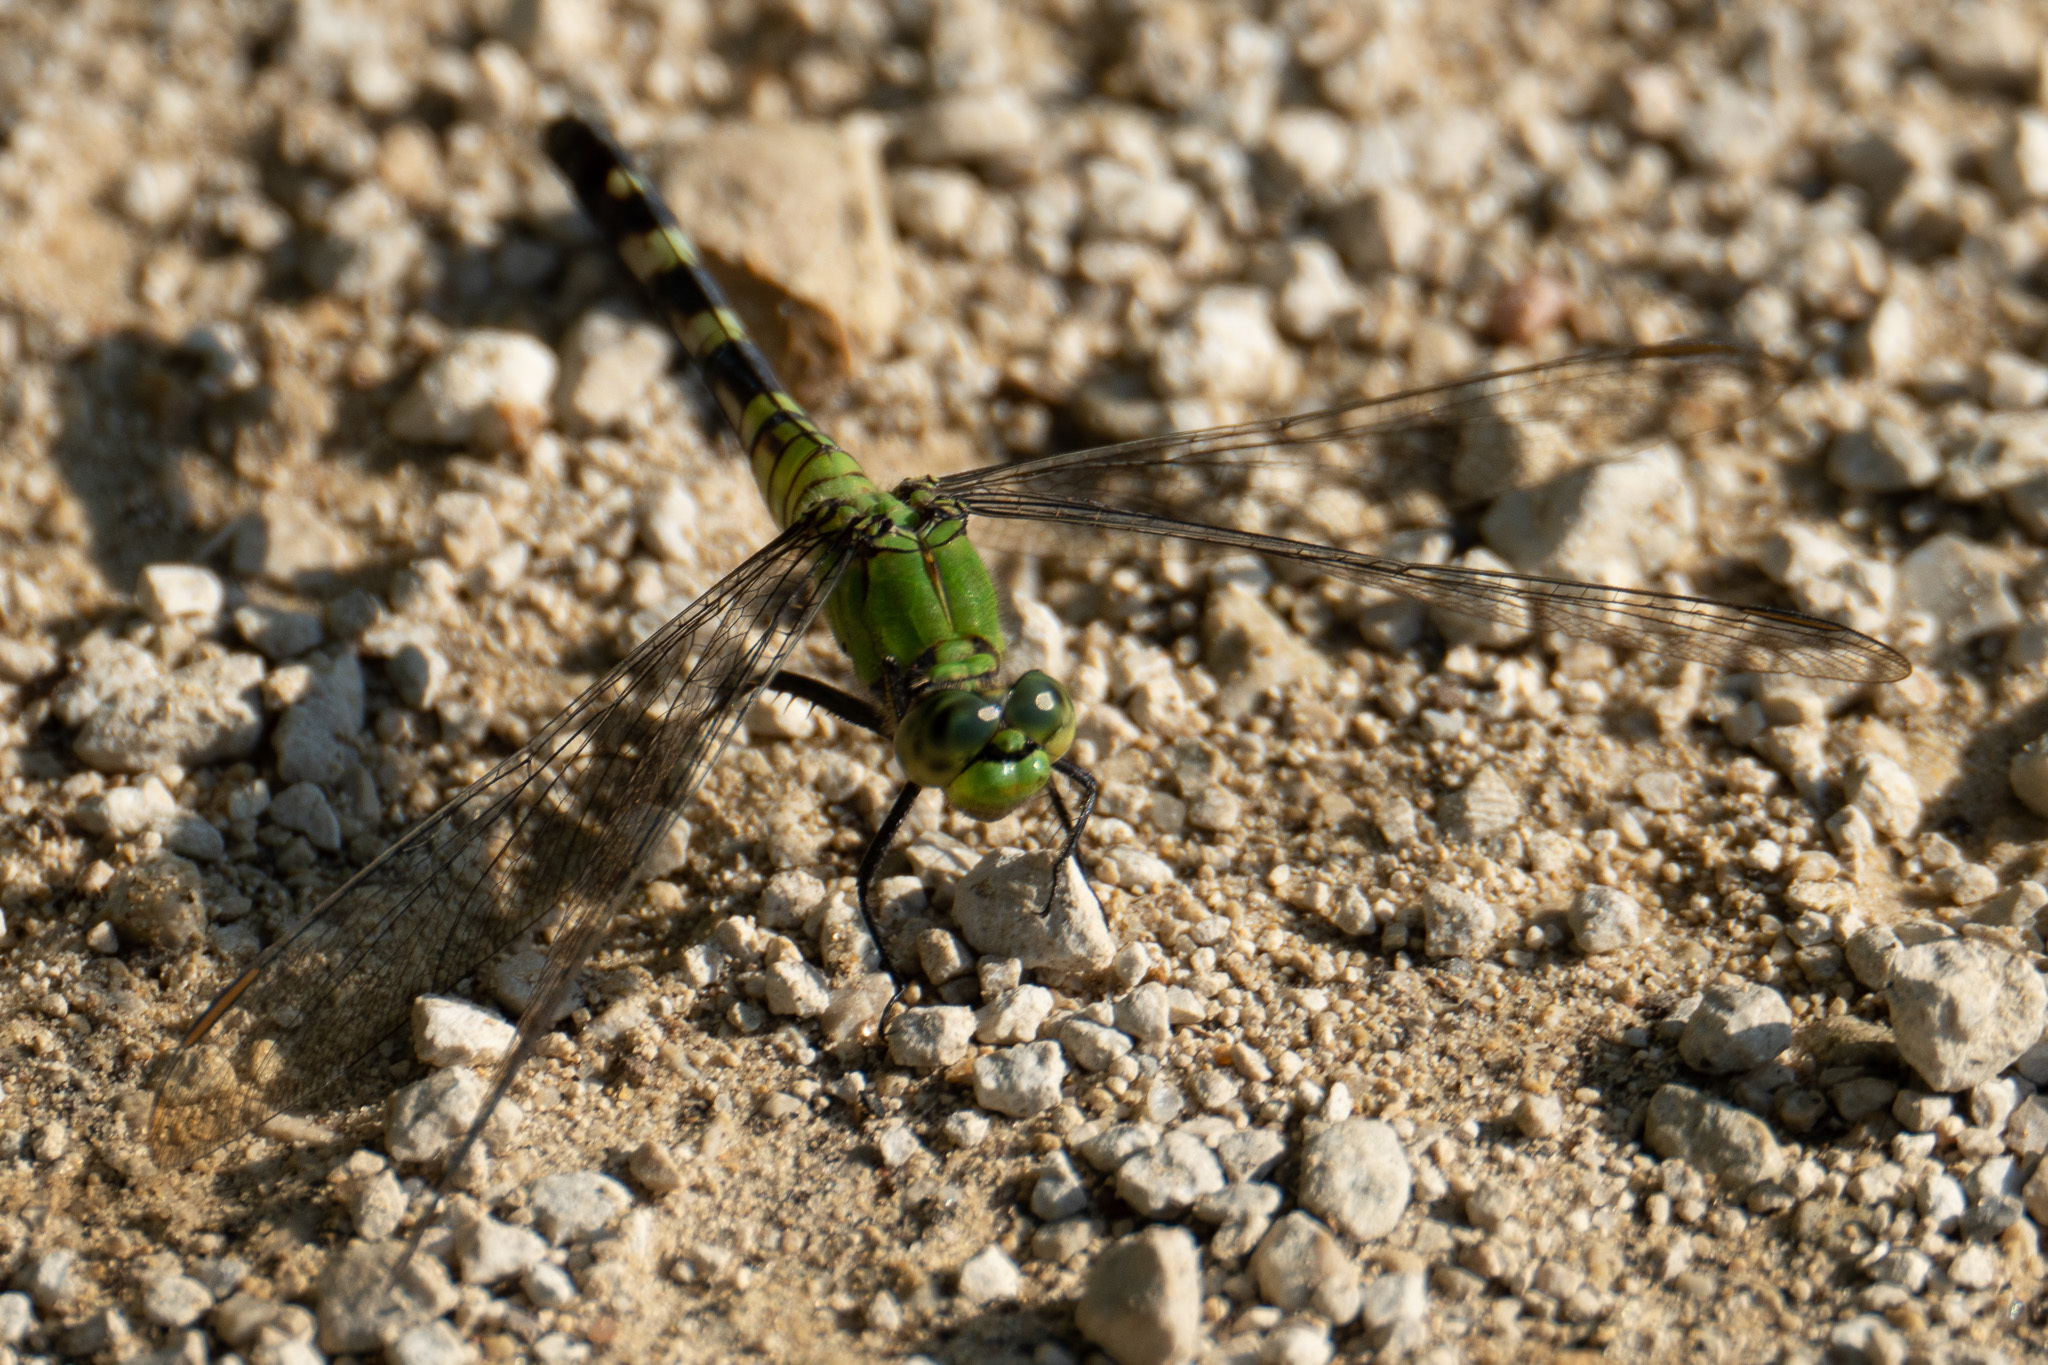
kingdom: Animalia
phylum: Arthropoda
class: Insecta
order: Odonata
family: Libellulidae
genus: Erythemis
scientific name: Erythemis simplicicollis
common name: Eastern pondhawk
